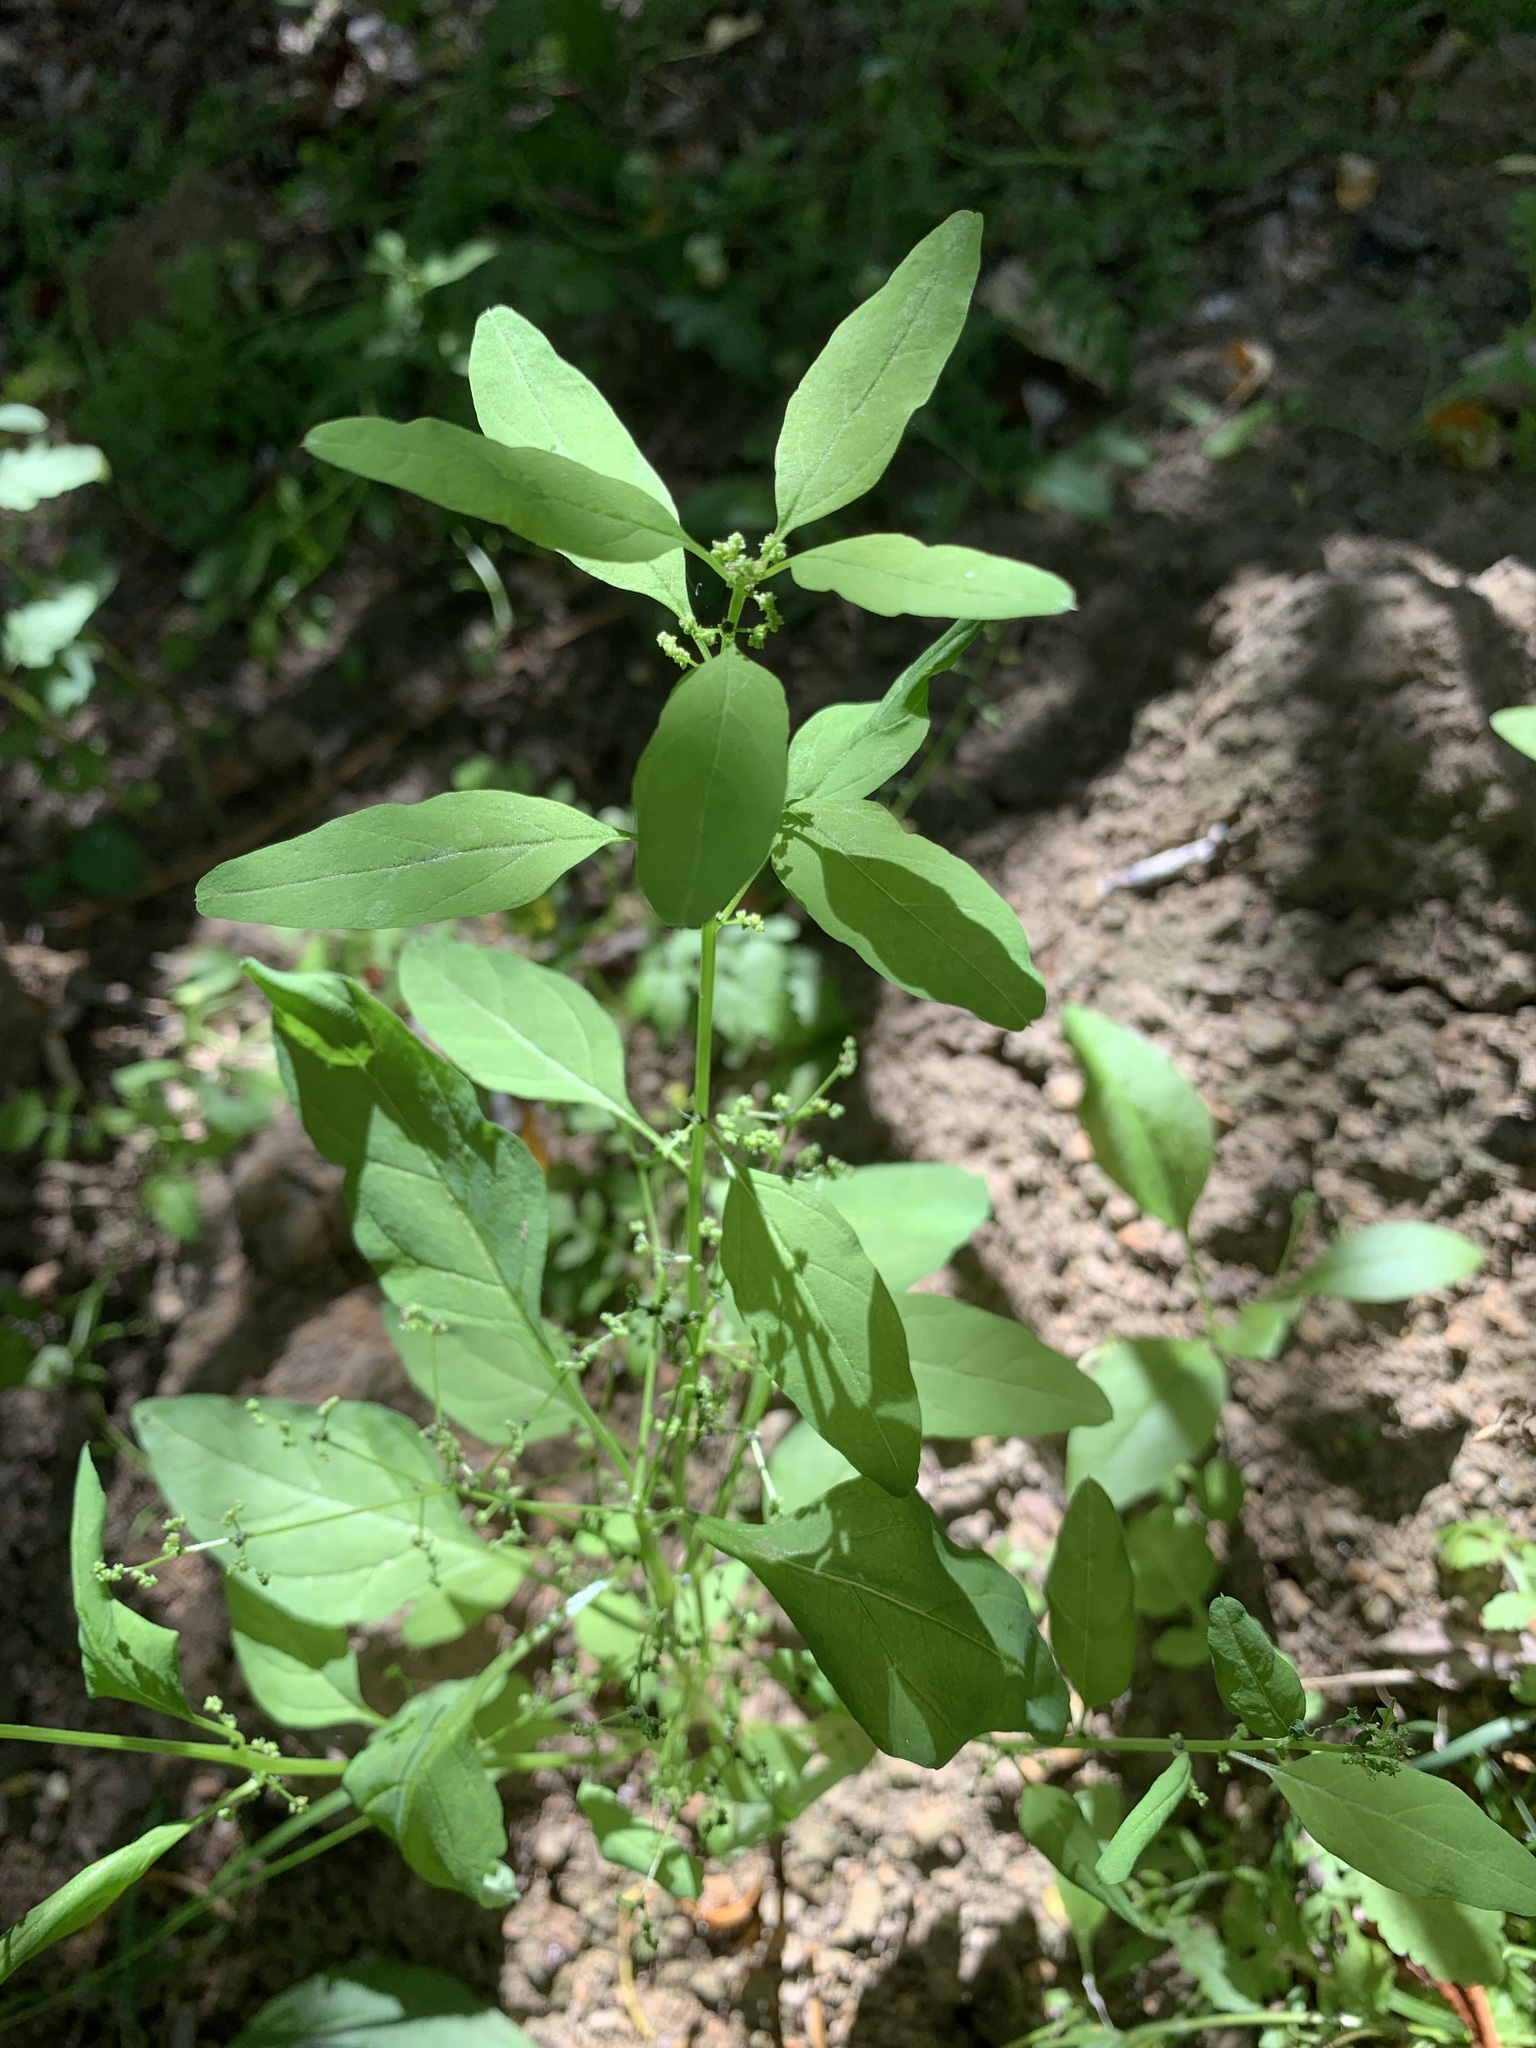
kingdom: Plantae
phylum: Tracheophyta
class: Magnoliopsida
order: Caryophyllales
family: Amaranthaceae
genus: Lipandra
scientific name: Lipandra polysperma
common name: Many-seed goosefoot
